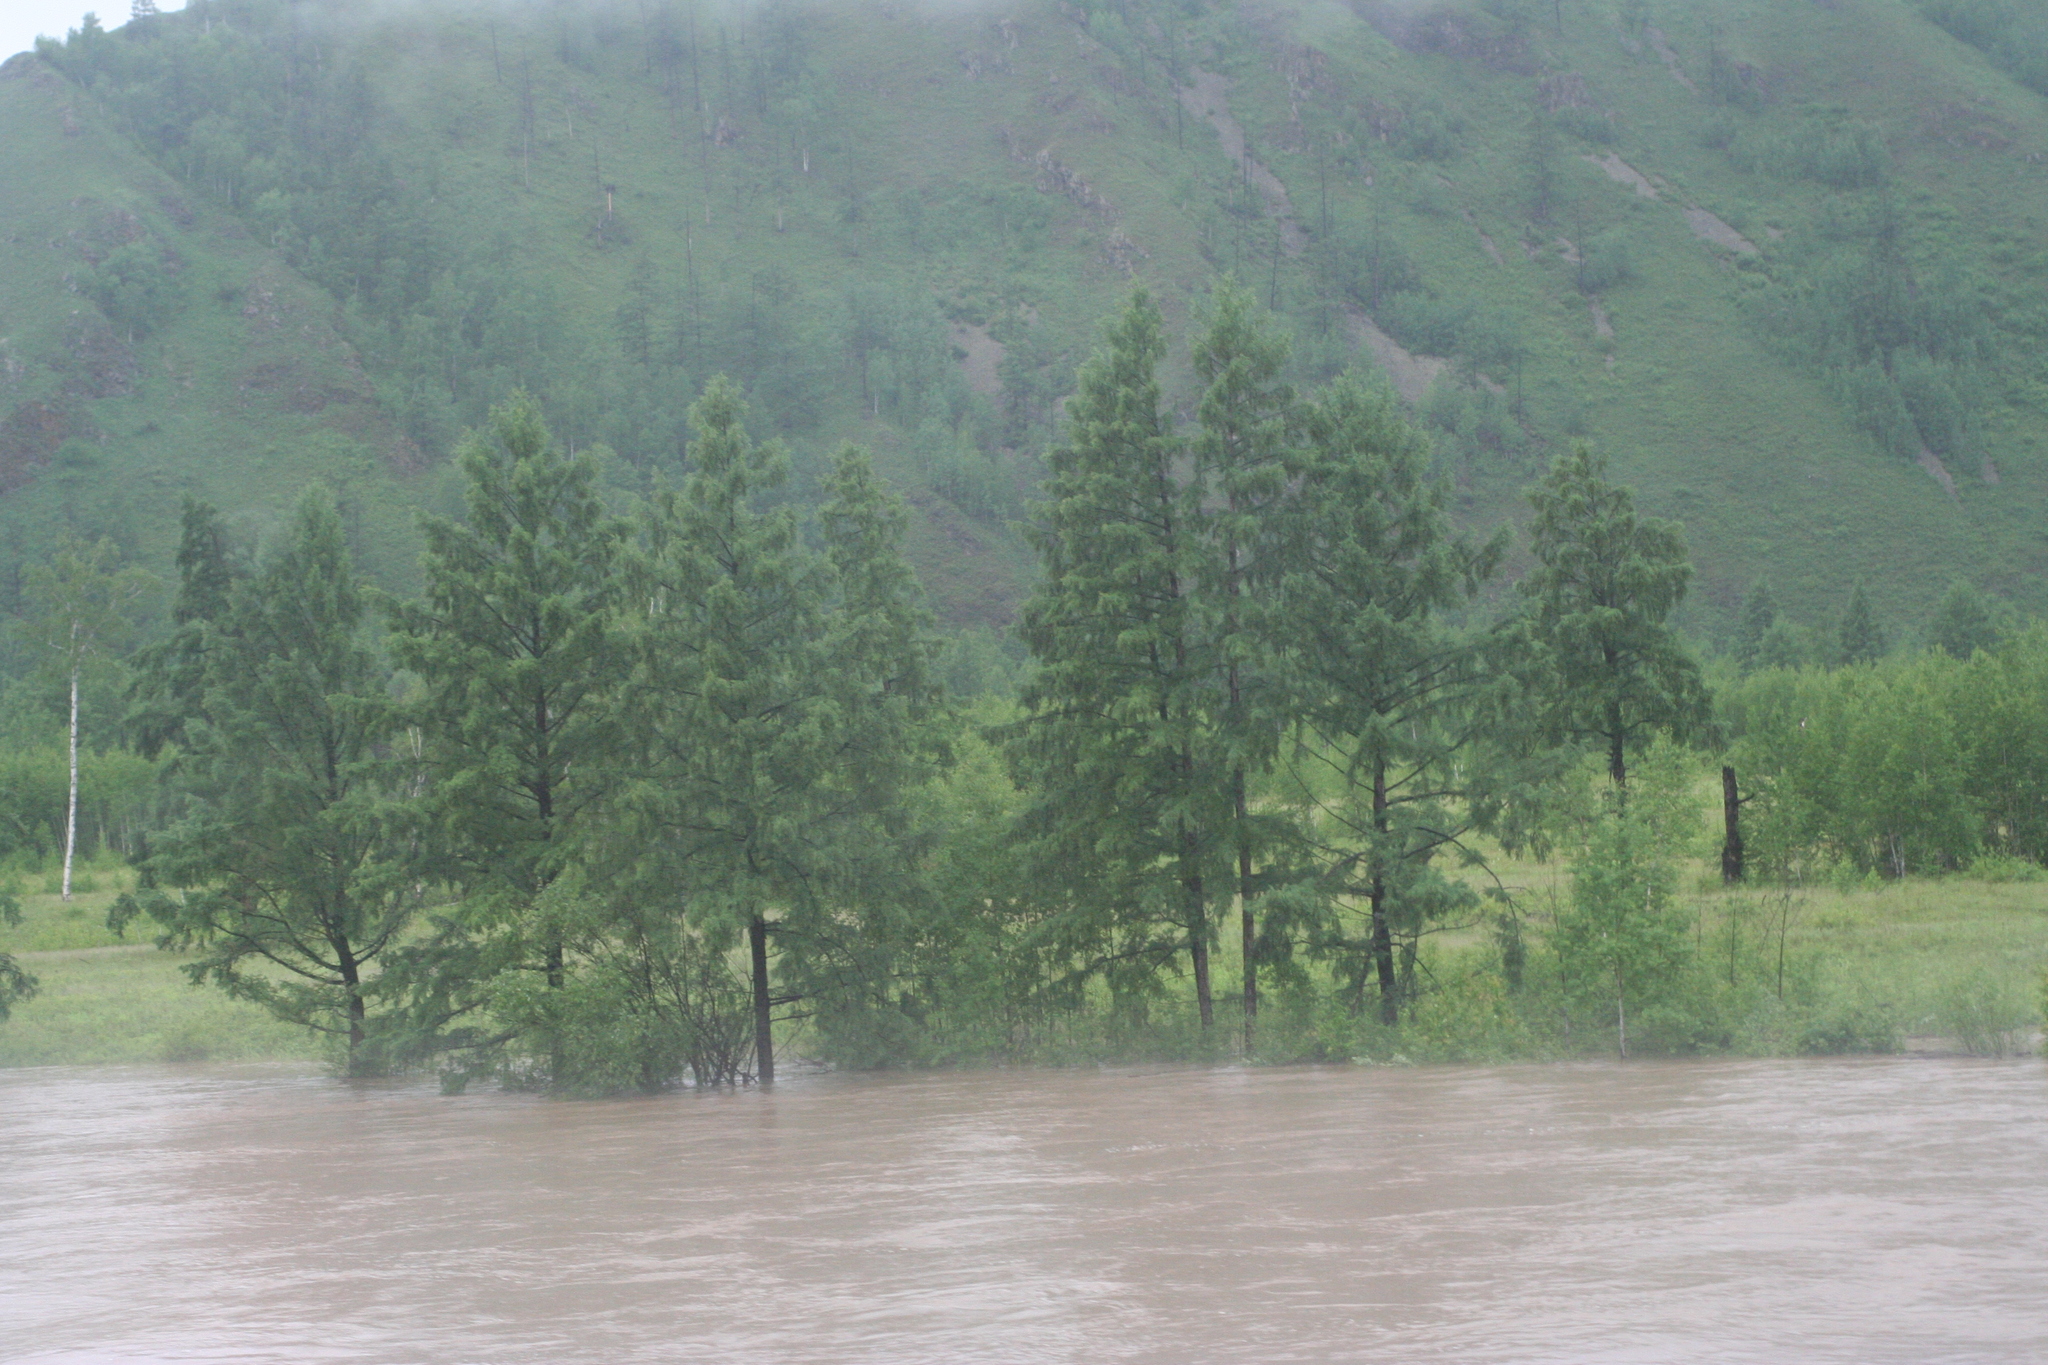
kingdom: Plantae
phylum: Tracheophyta
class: Pinopsida
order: Pinales
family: Pinaceae
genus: Larix
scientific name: Larix gmelinii
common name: Dahurian larch
